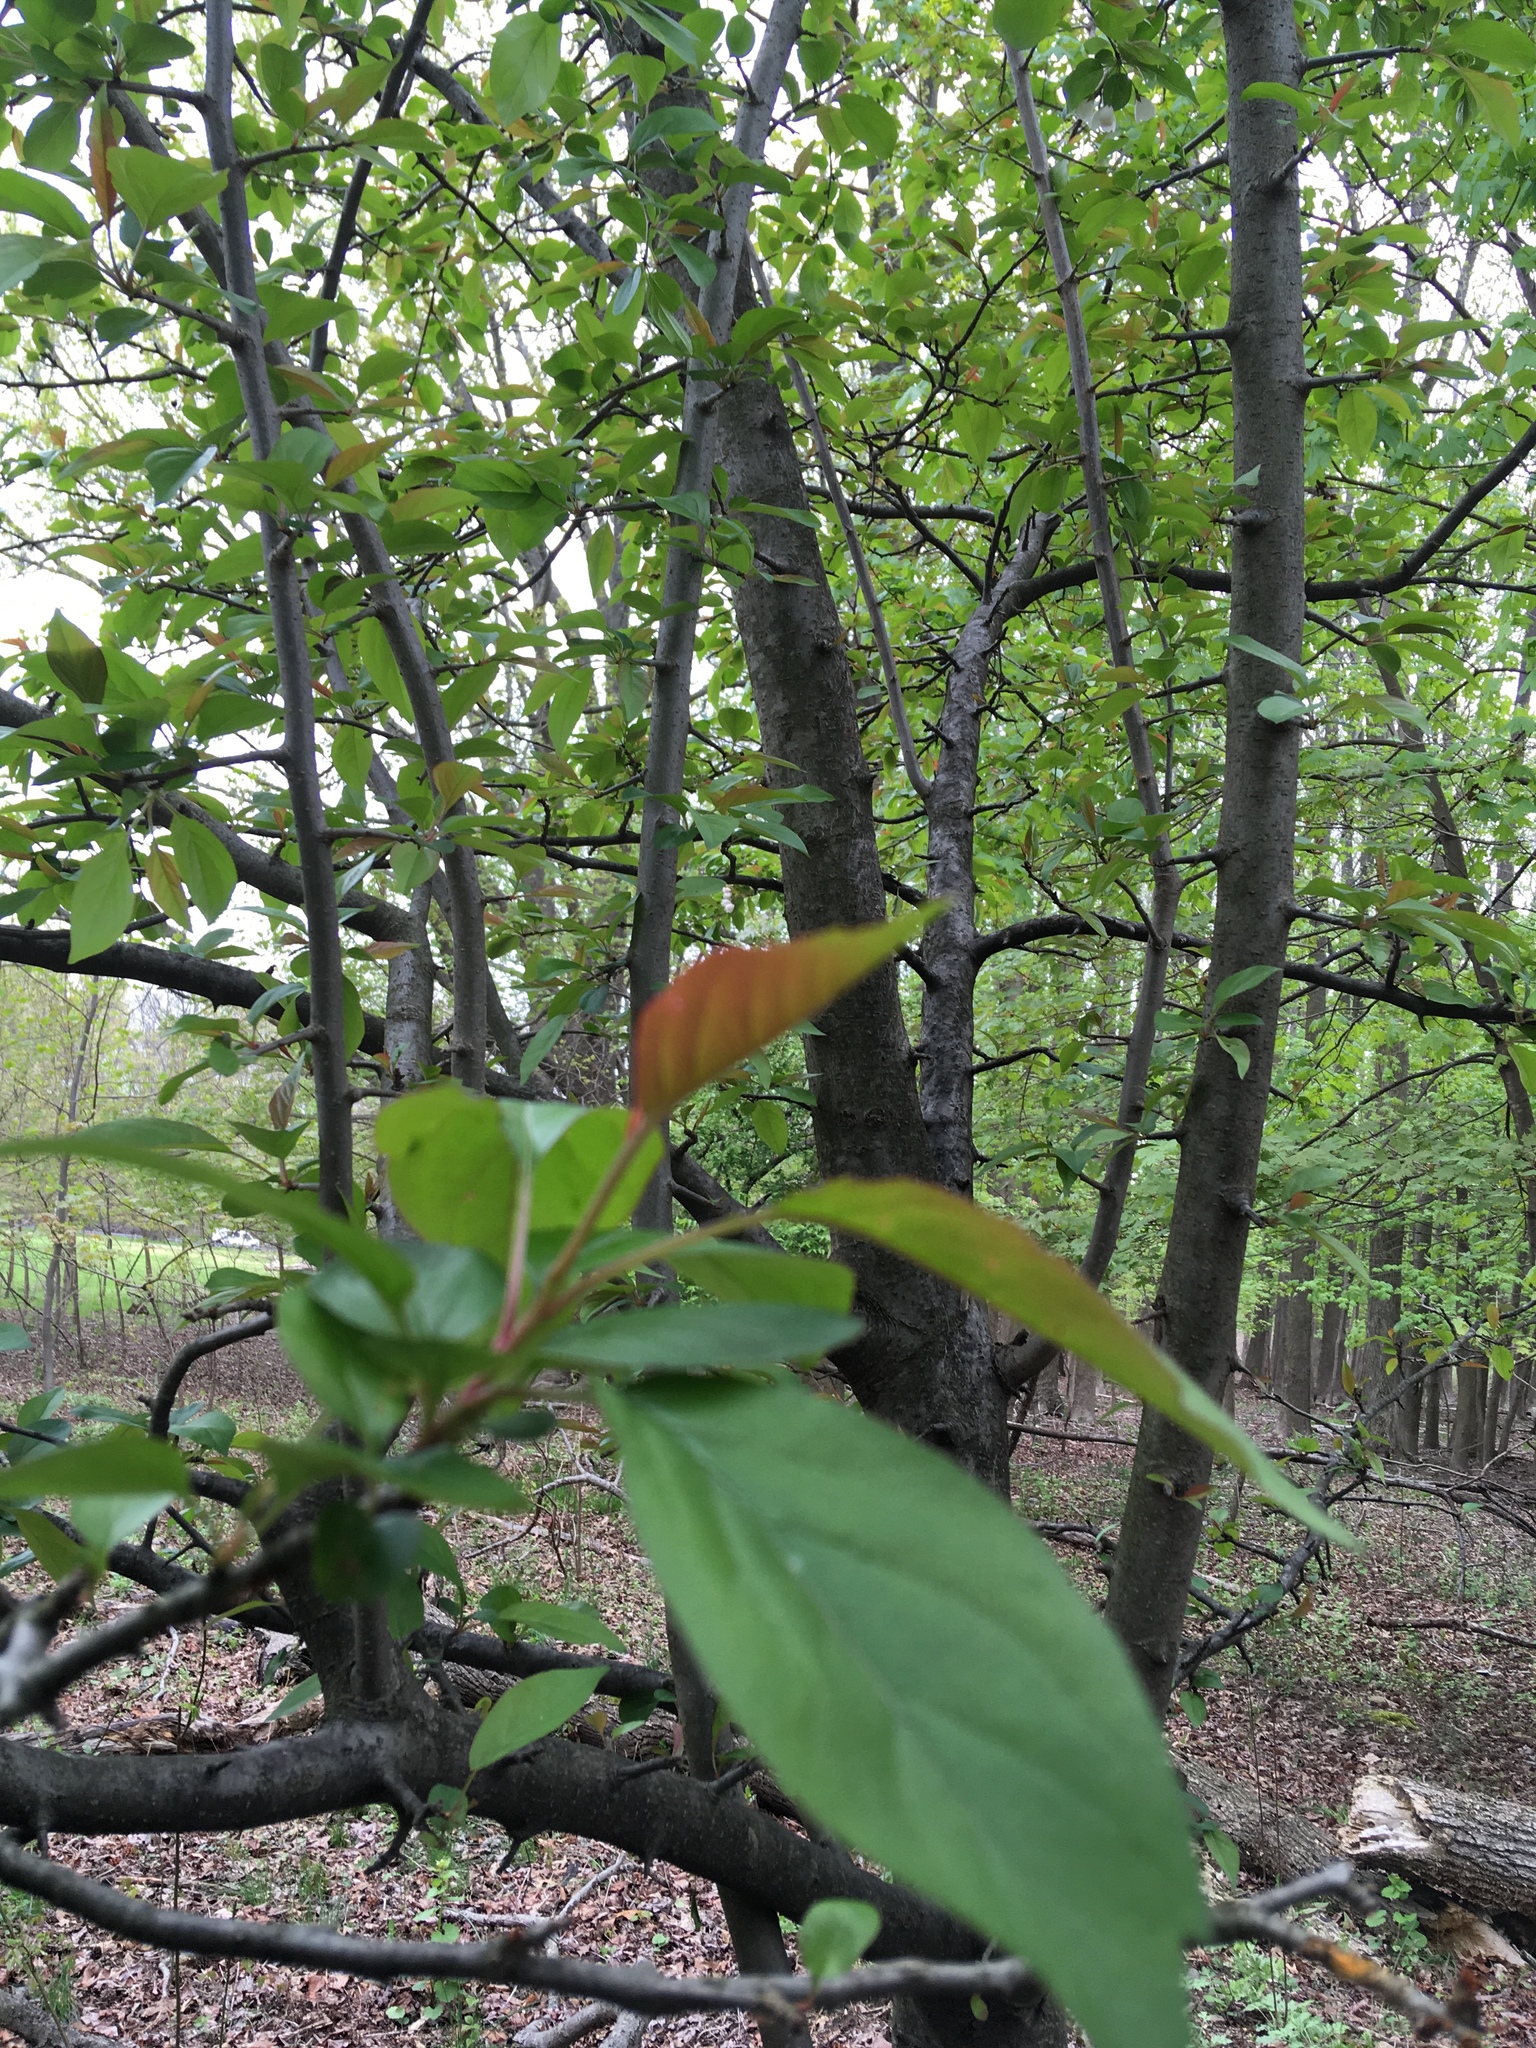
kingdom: Plantae
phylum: Tracheophyta
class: Magnoliopsida
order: Rosales
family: Rosaceae
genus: Malus
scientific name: Malus hupehensis
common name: Chinese crab apple
